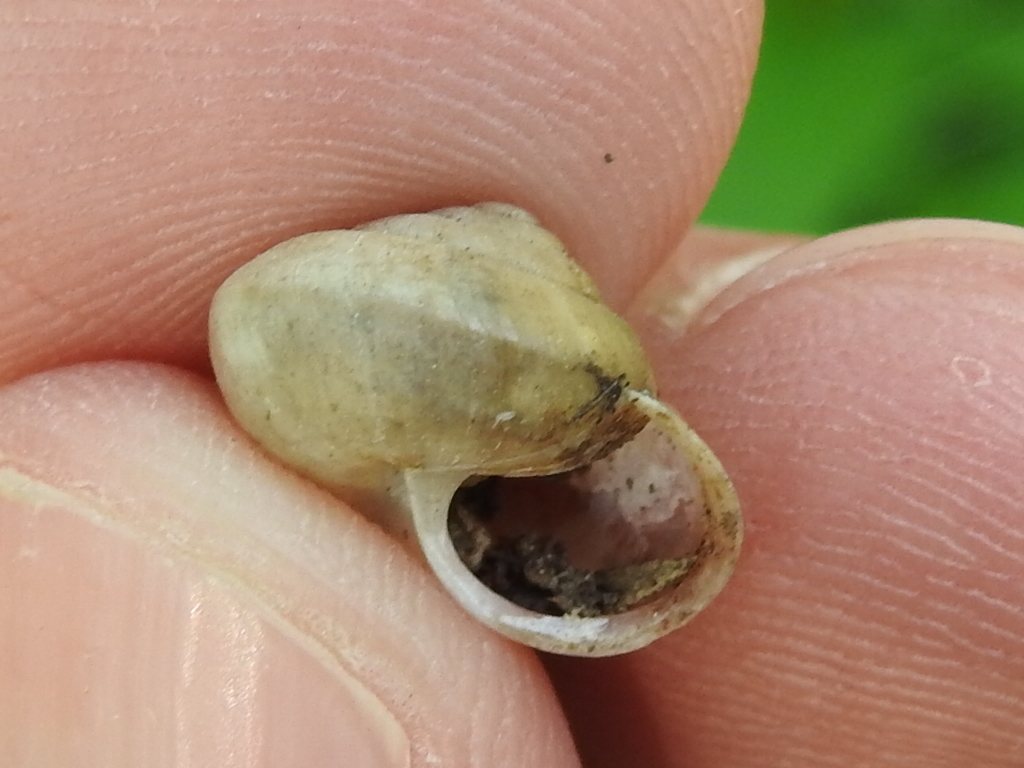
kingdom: Animalia
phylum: Mollusca
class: Gastropoda
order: Stylommatophora
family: Camaenidae
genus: Bradybaena
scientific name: Bradybaena similaris
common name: Asian trampsnail
